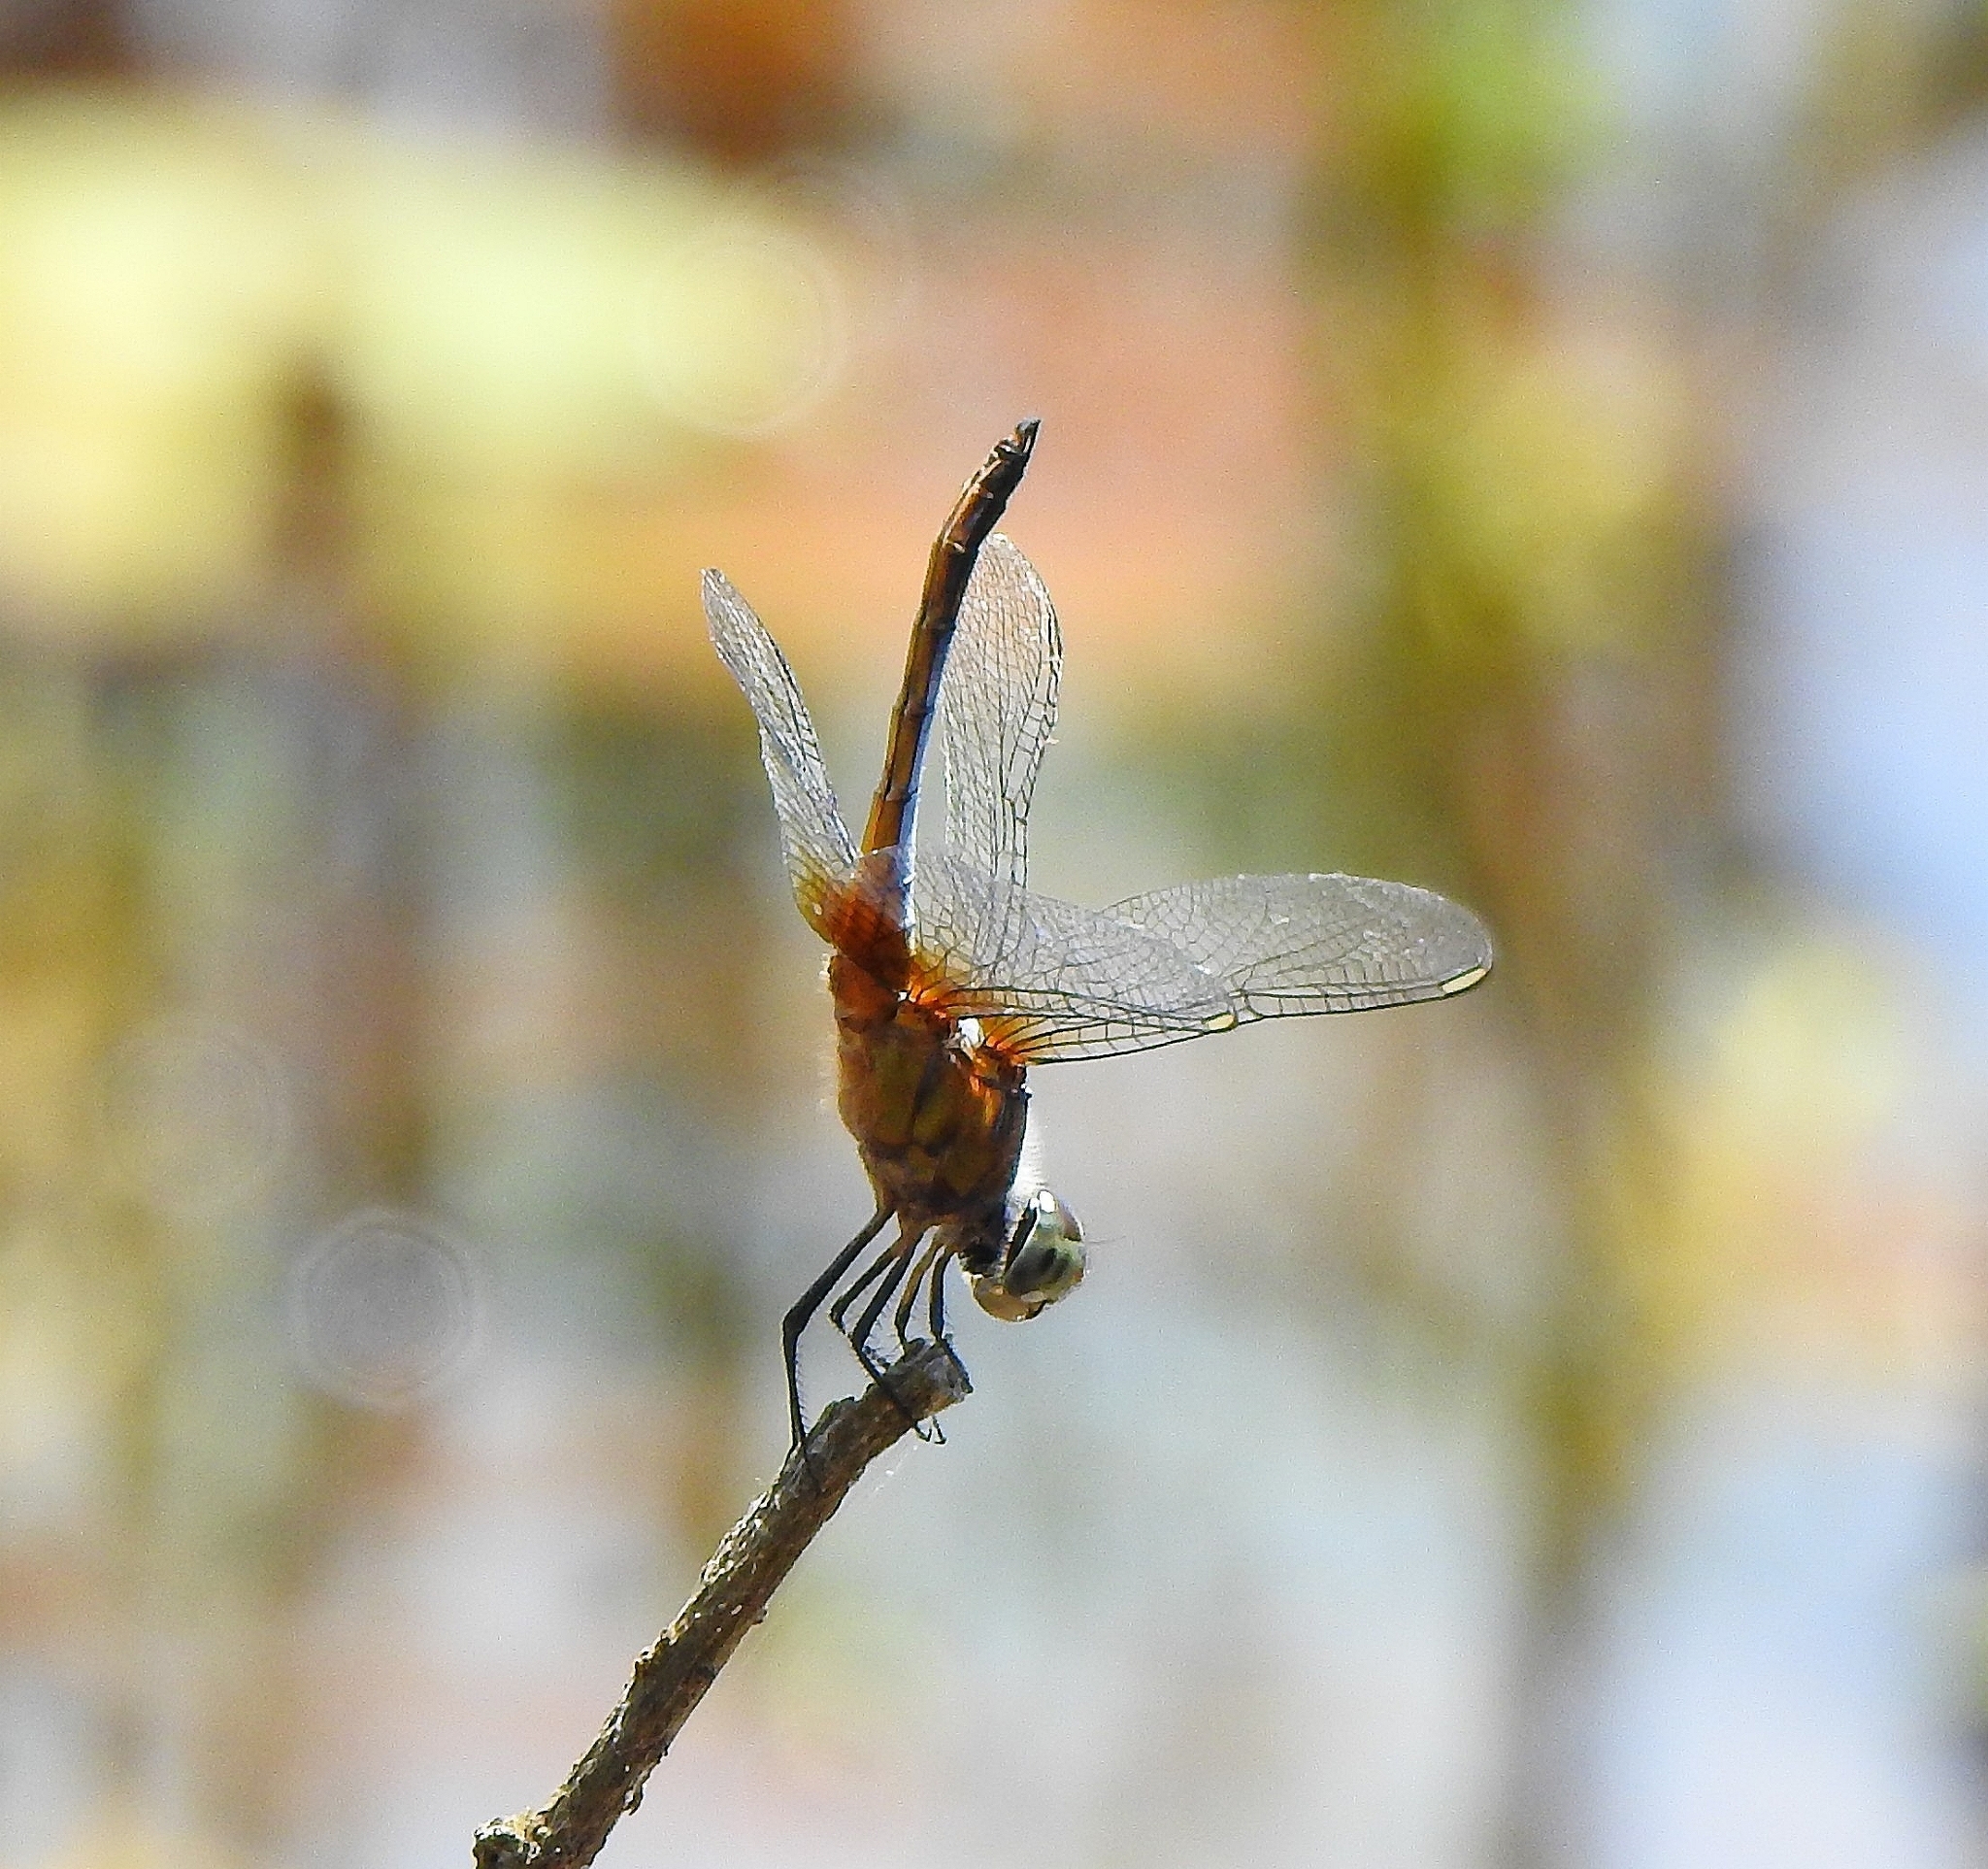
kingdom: Animalia
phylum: Arthropoda
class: Insecta
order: Odonata
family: Libellulidae
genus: Brachydiplax
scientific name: Brachydiplax chalybea
